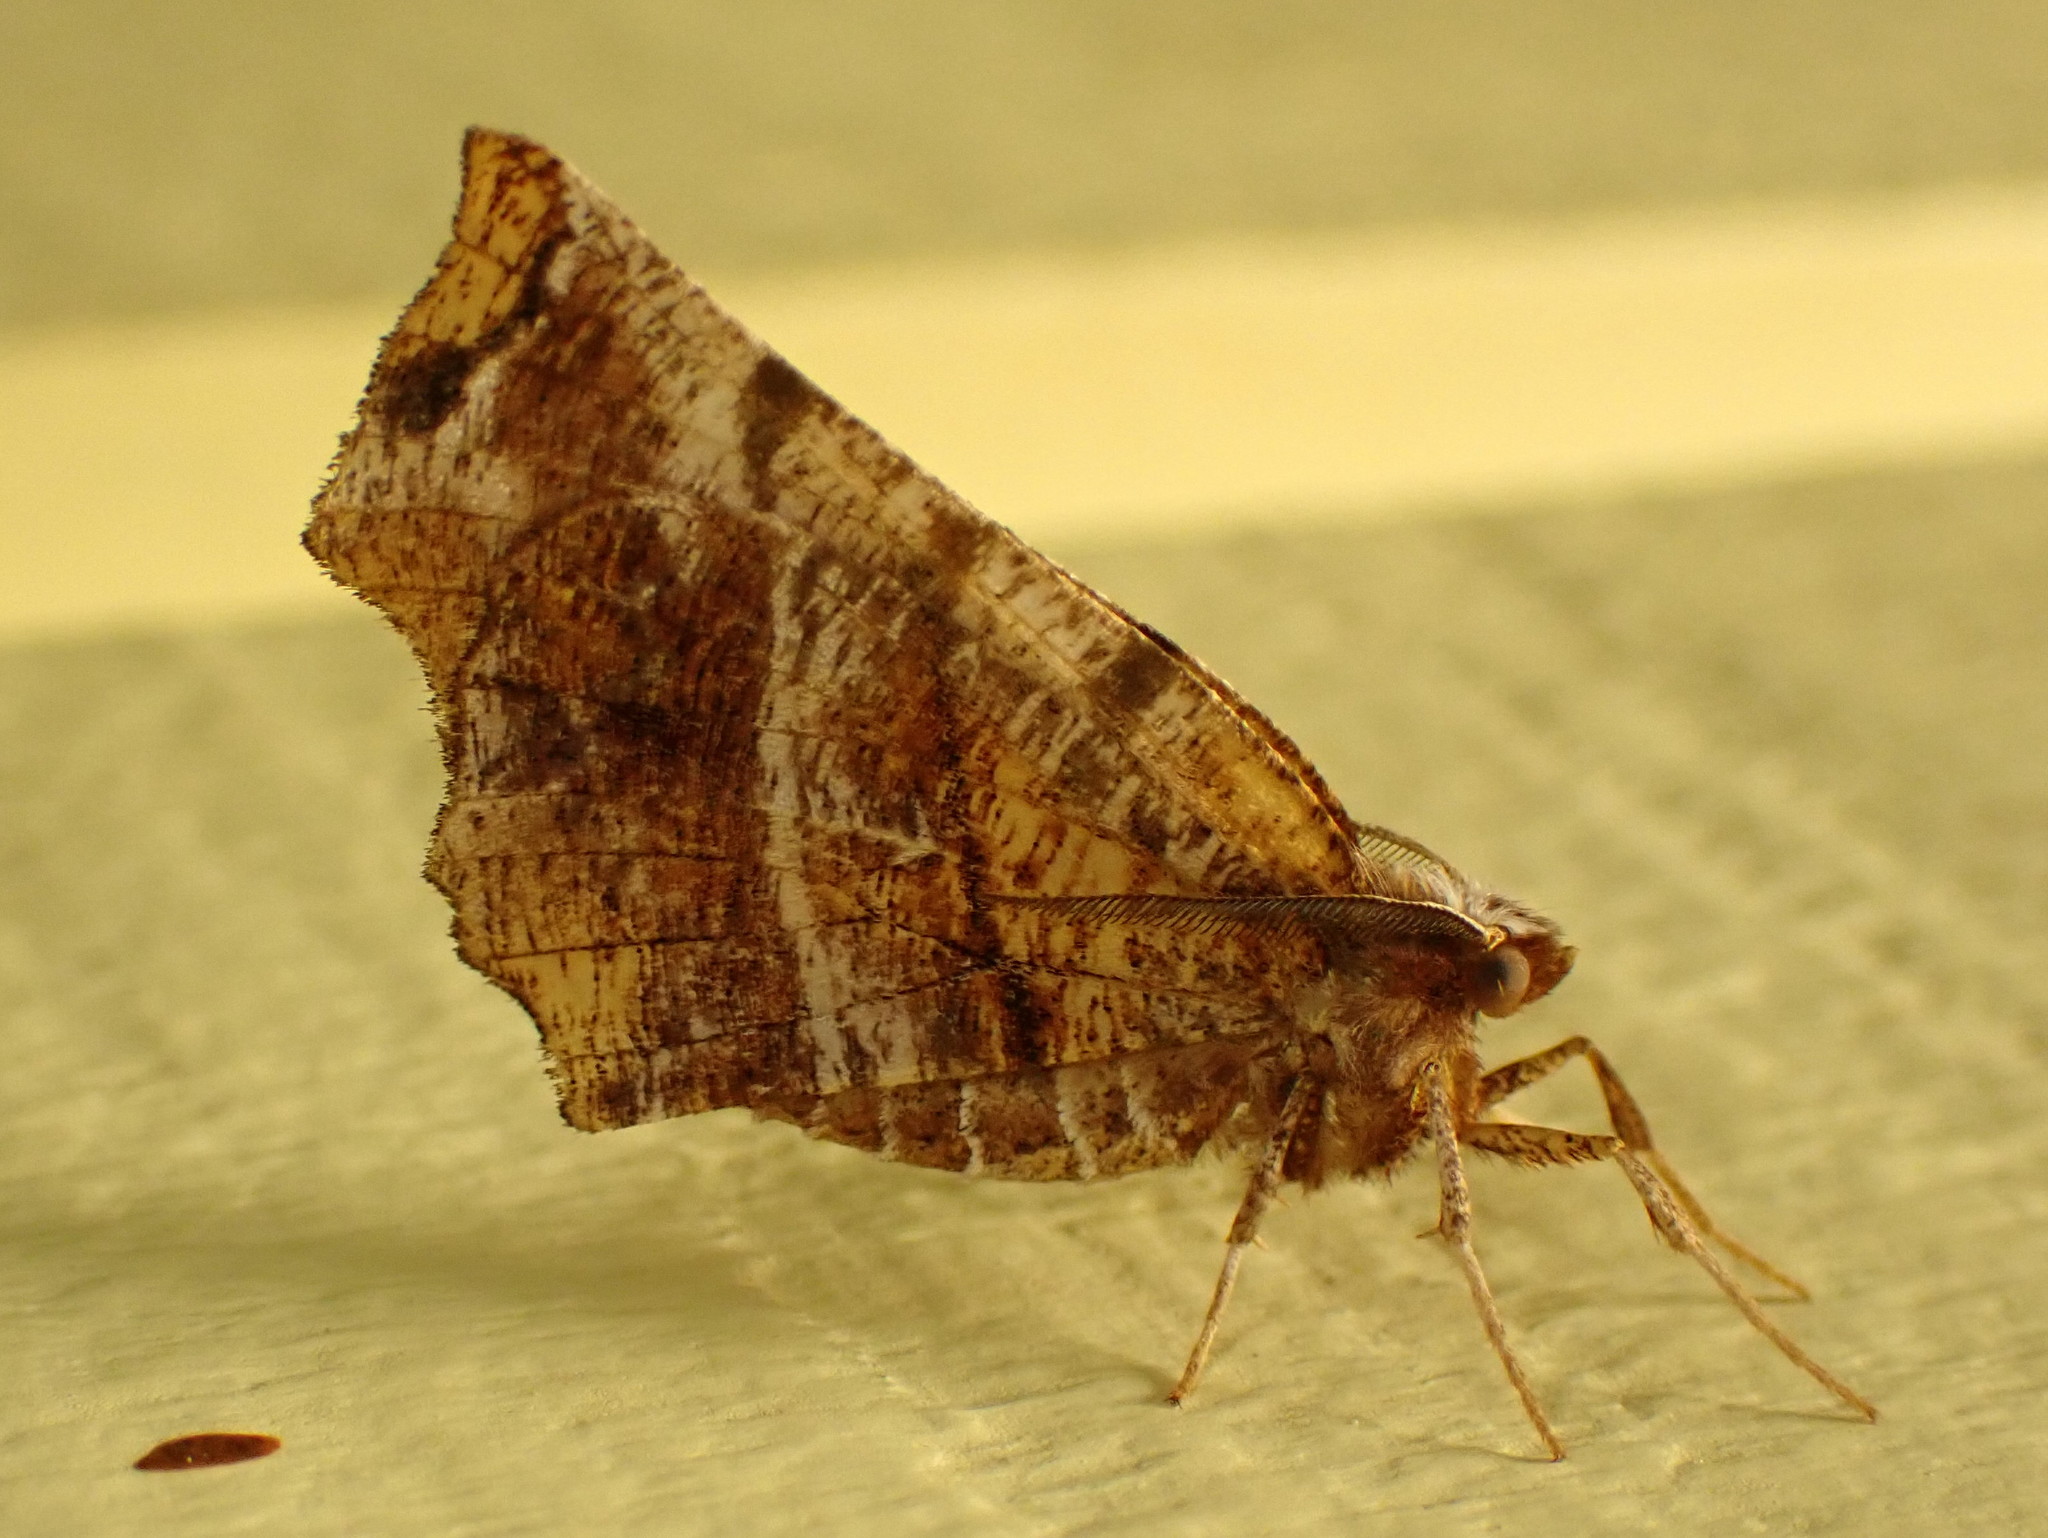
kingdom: Animalia
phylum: Arthropoda
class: Insecta
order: Lepidoptera
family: Geometridae
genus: Selenia
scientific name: Selenia alciphearia
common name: Brown-tipped thorn
